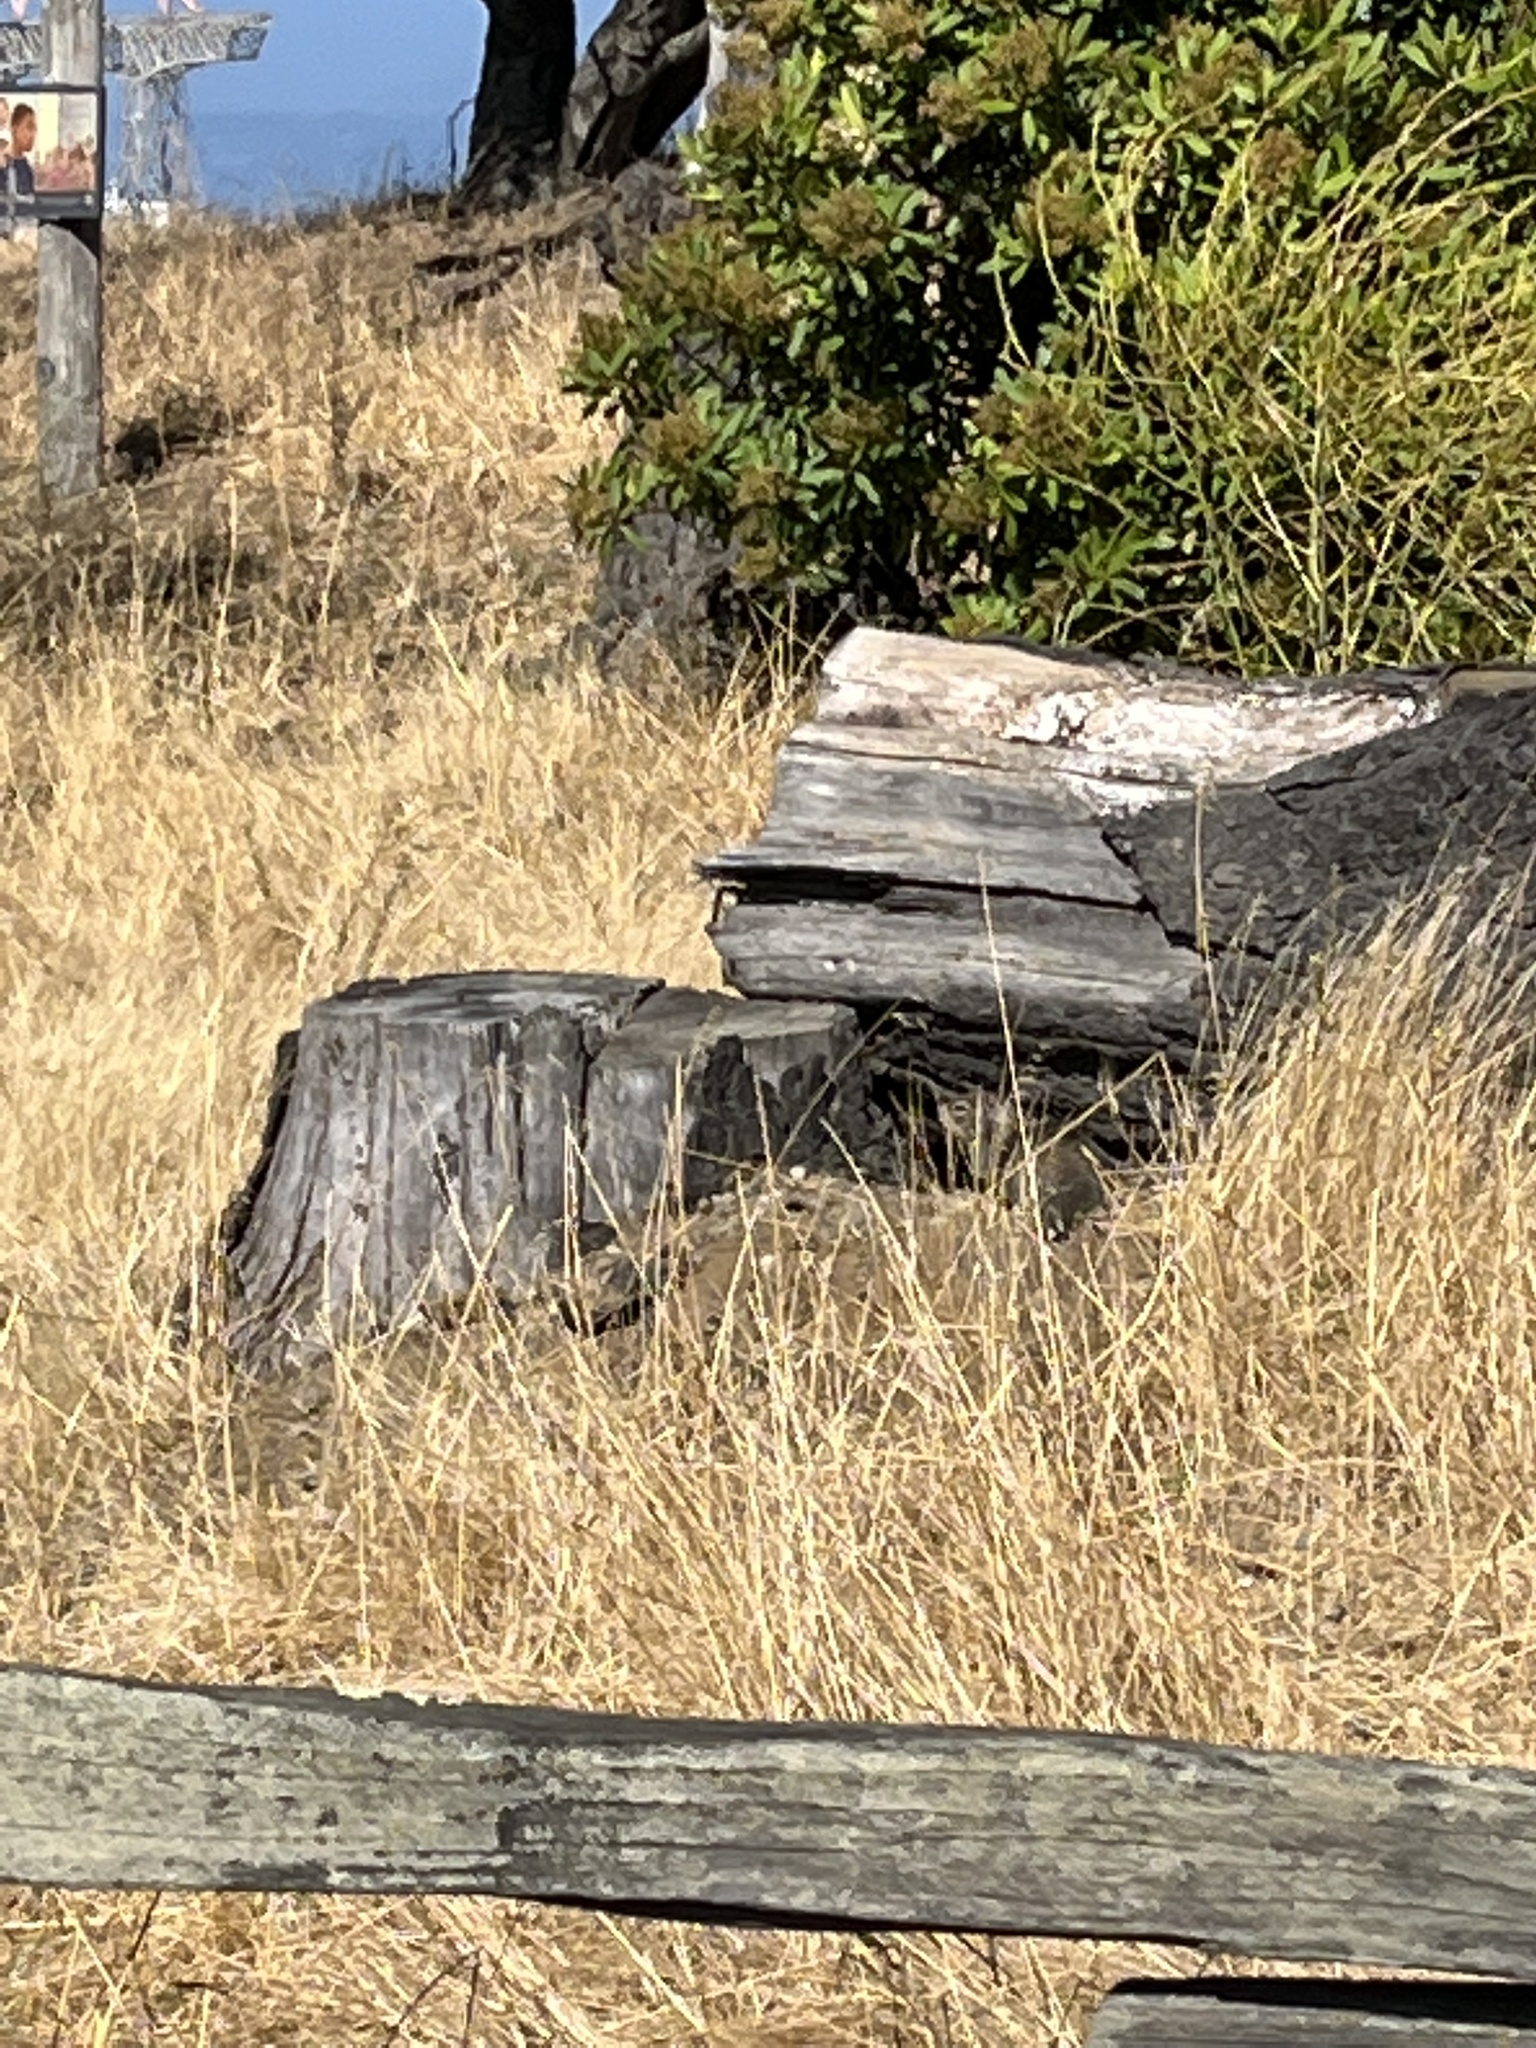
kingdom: Animalia
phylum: Chordata
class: Mammalia
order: Rodentia
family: Sciuridae
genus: Otospermophilus
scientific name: Otospermophilus beecheyi
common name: California ground squirrel
